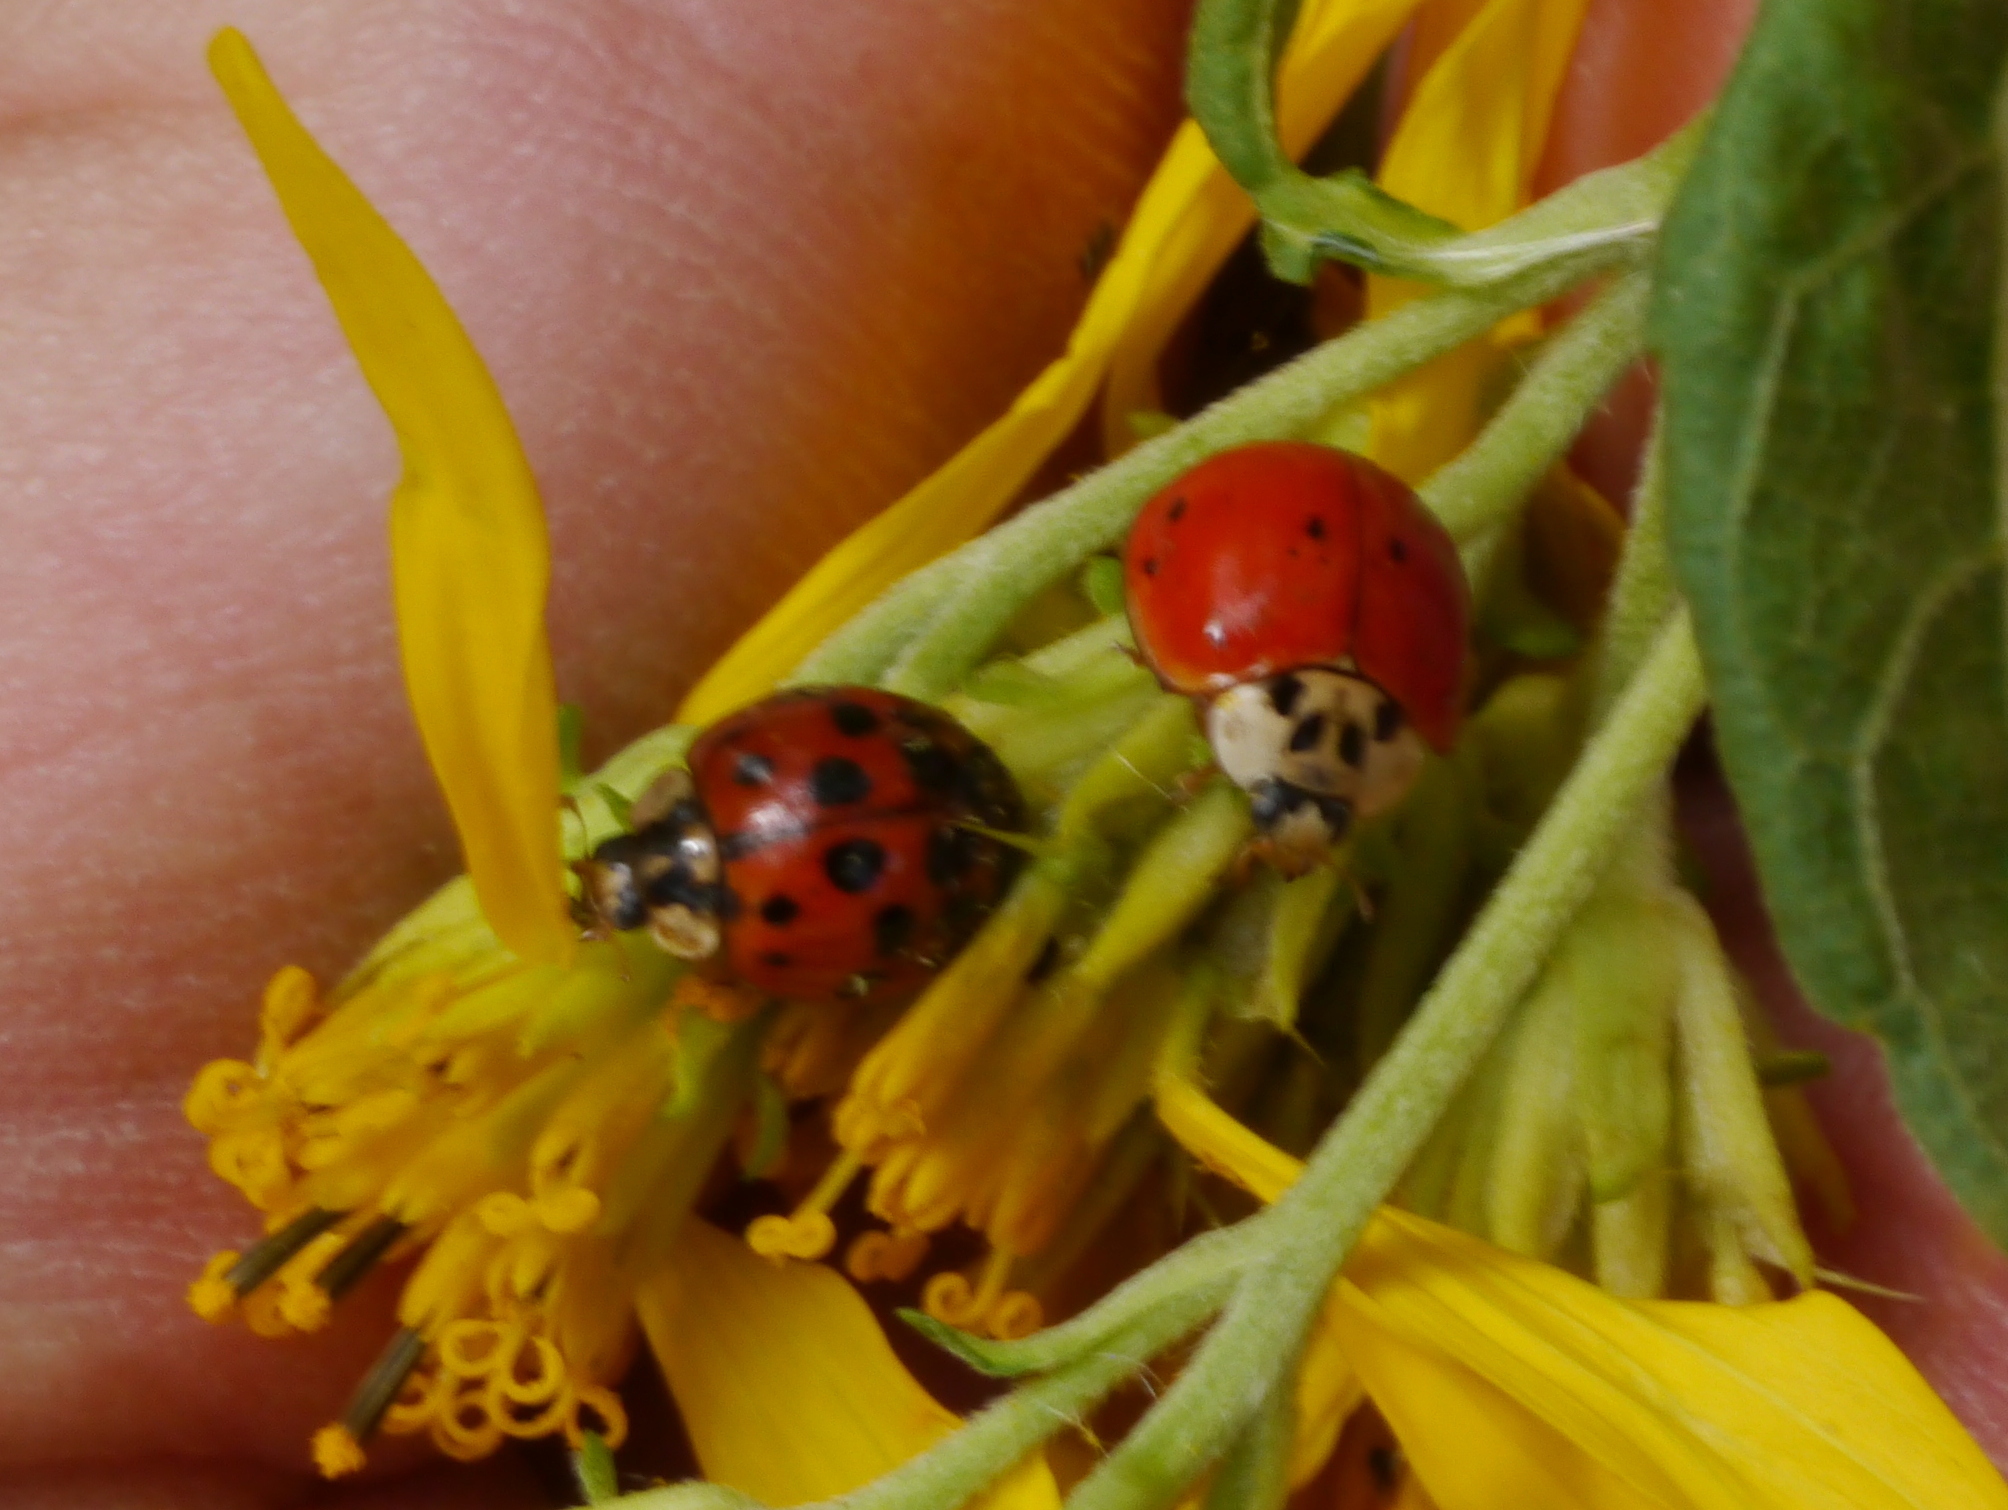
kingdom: Animalia
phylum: Arthropoda
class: Insecta
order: Coleoptera
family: Coccinellidae
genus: Harmonia
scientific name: Harmonia axyridis
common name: Harlequin ladybird
